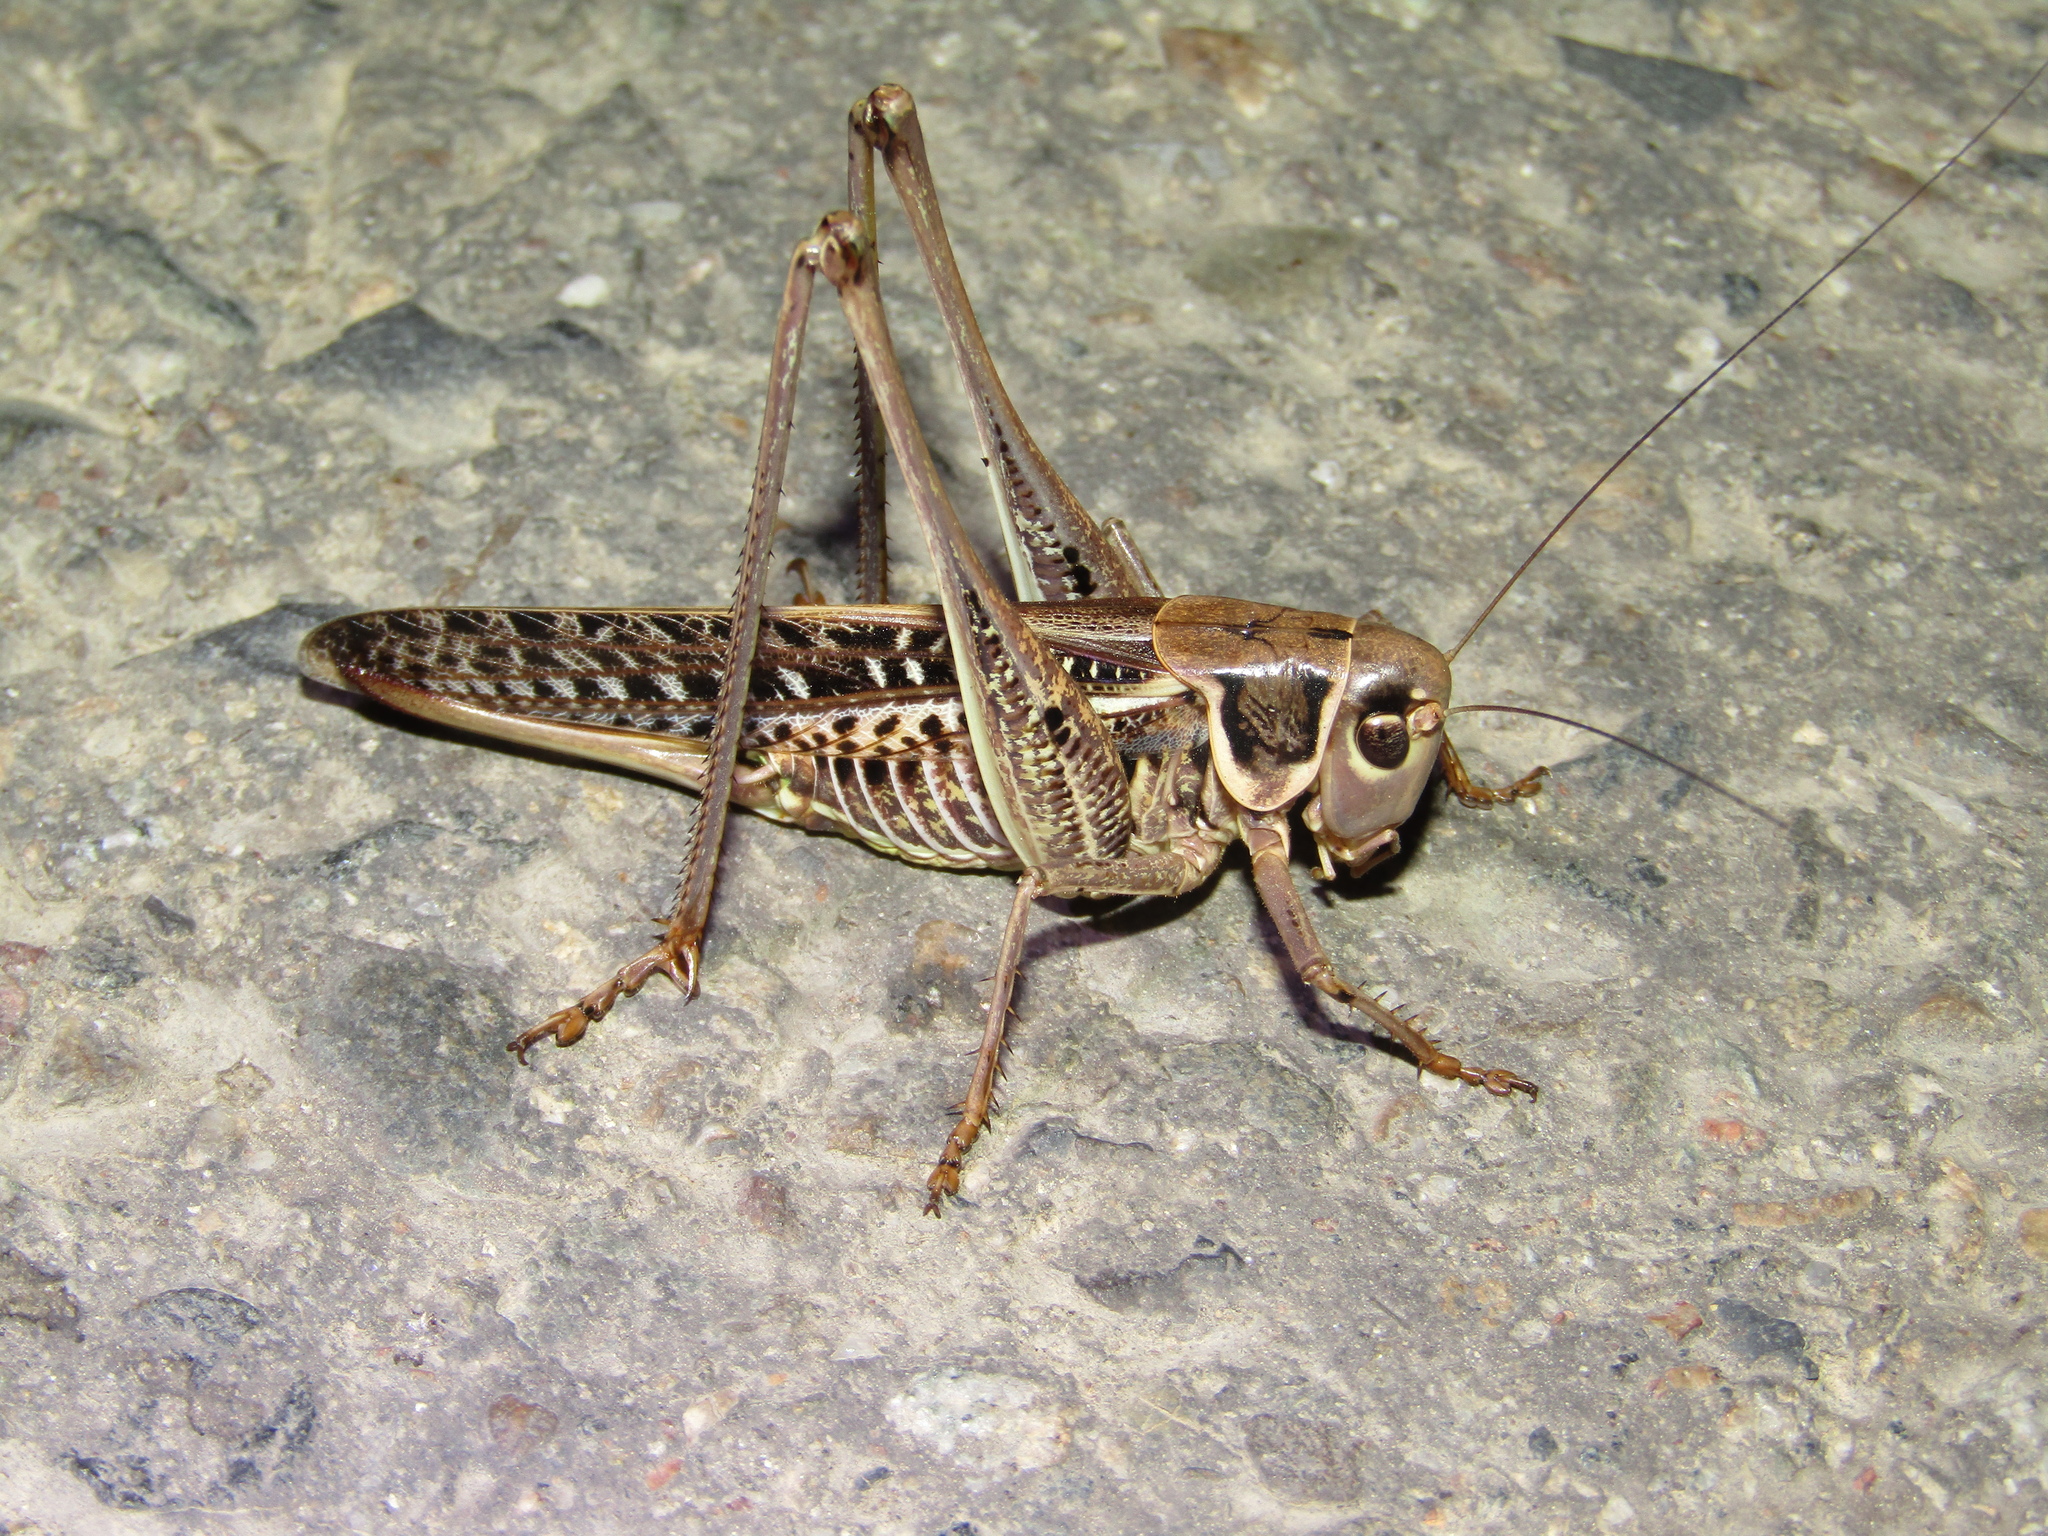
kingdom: Animalia
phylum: Arthropoda
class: Insecta
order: Orthoptera
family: Tettigoniidae
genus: Decticus
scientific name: Decticus albifrons
